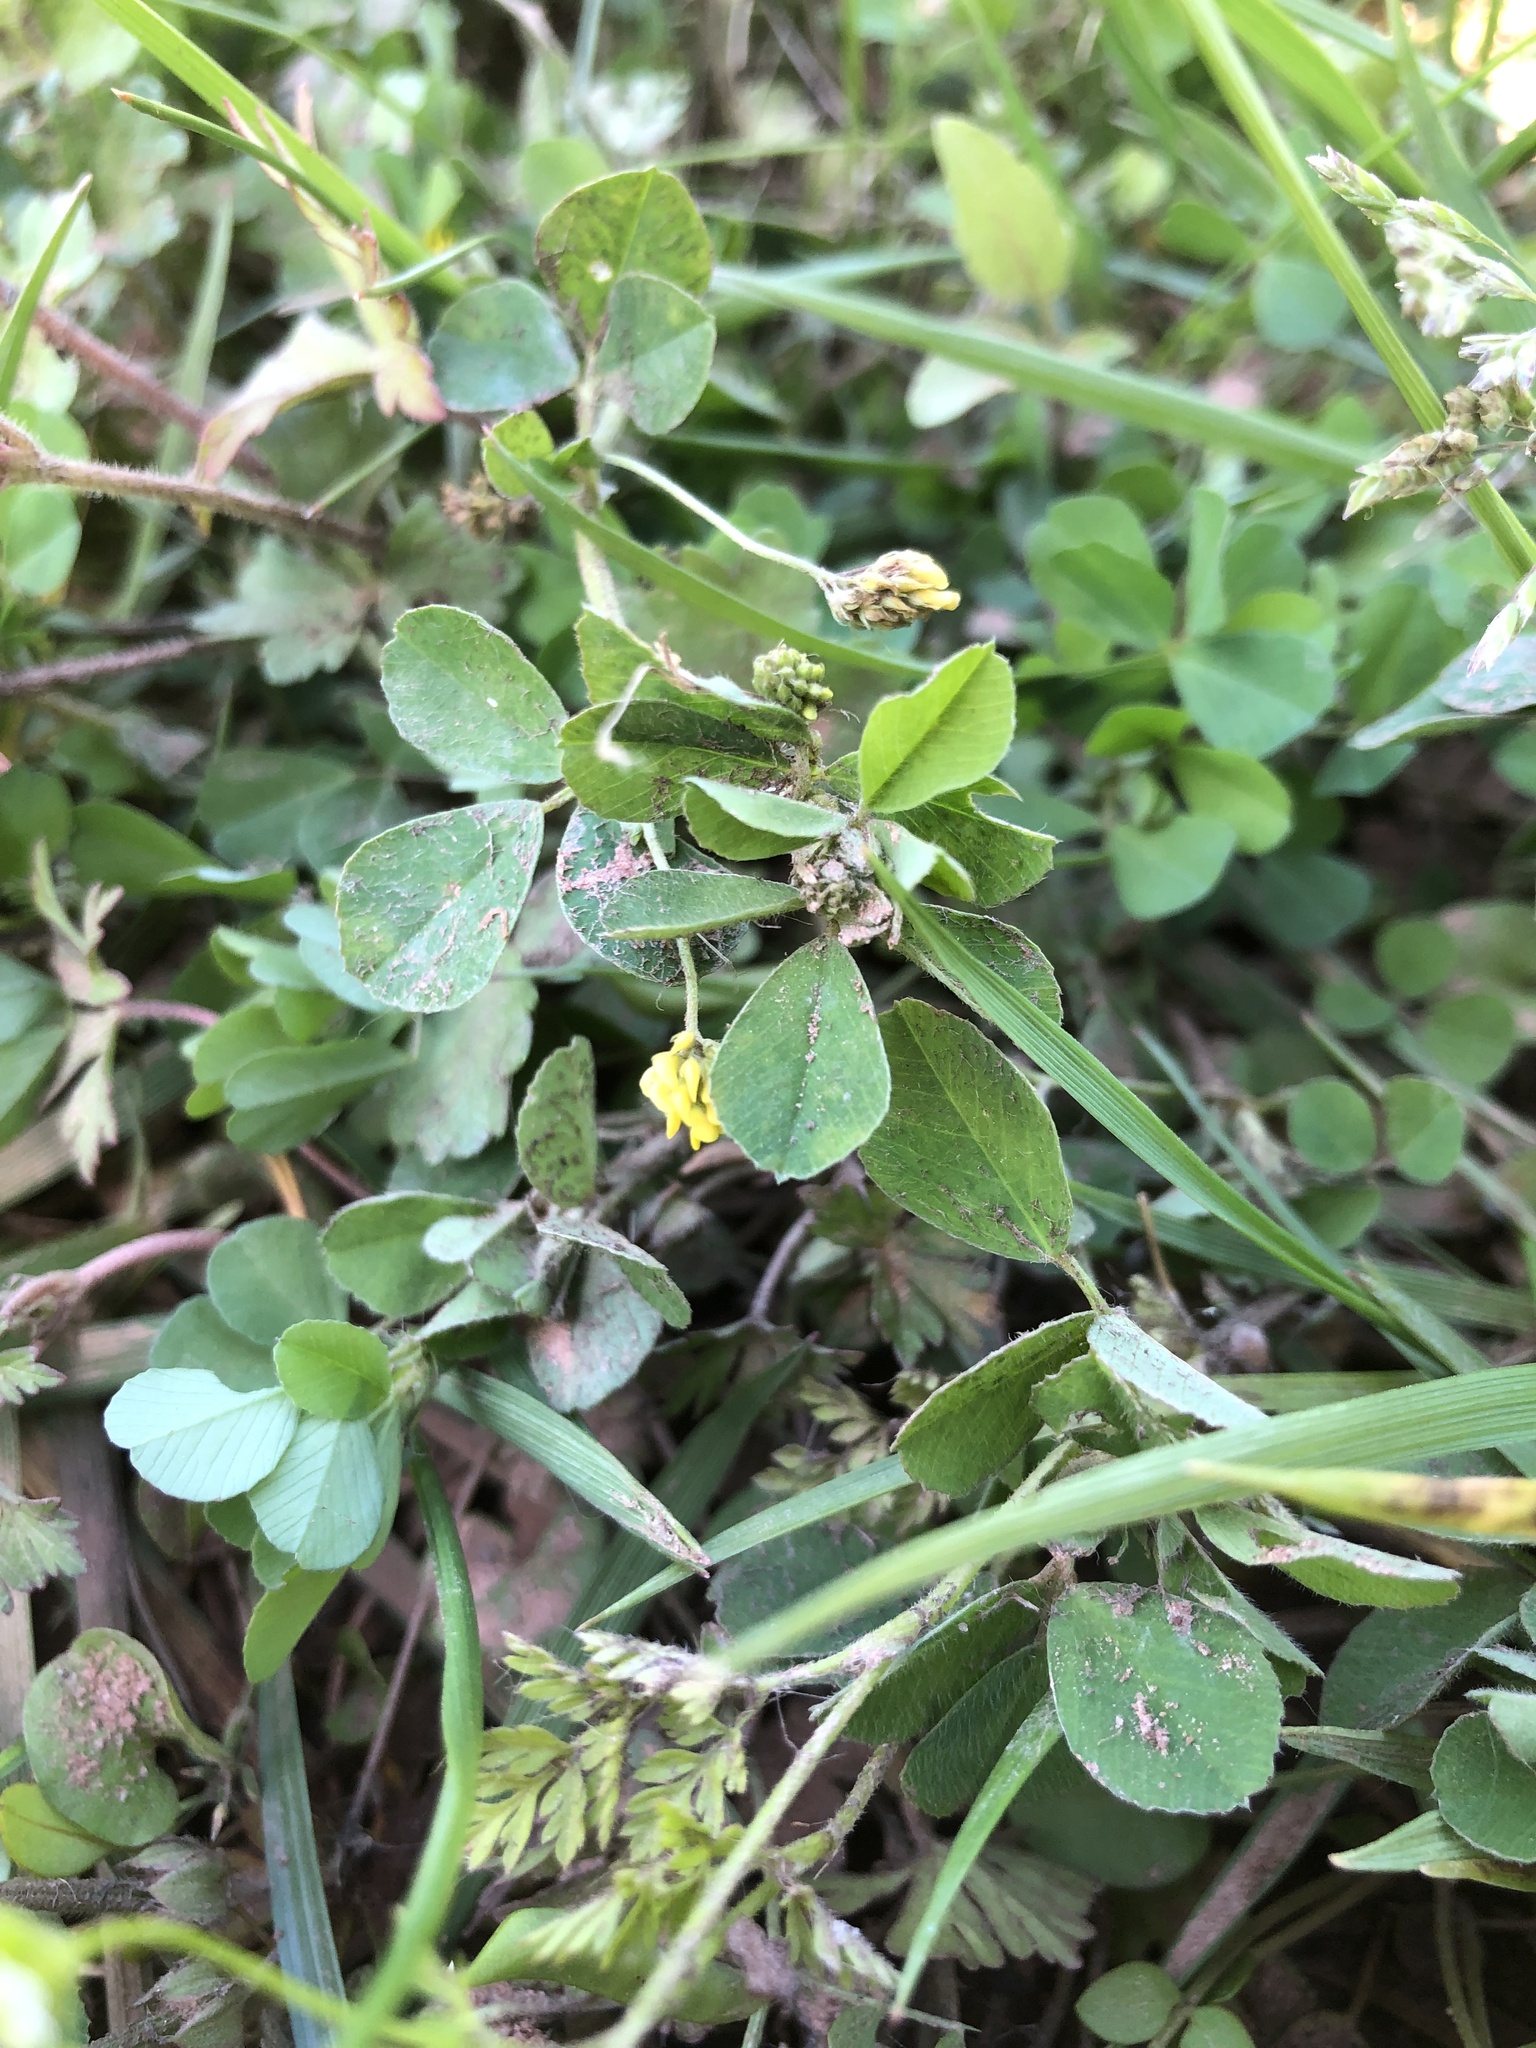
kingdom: Plantae
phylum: Tracheophyta
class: Magnoliopsida
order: Fabales
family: Fabaceae
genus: Medicago
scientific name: Medicago lupulina
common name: Black medick
